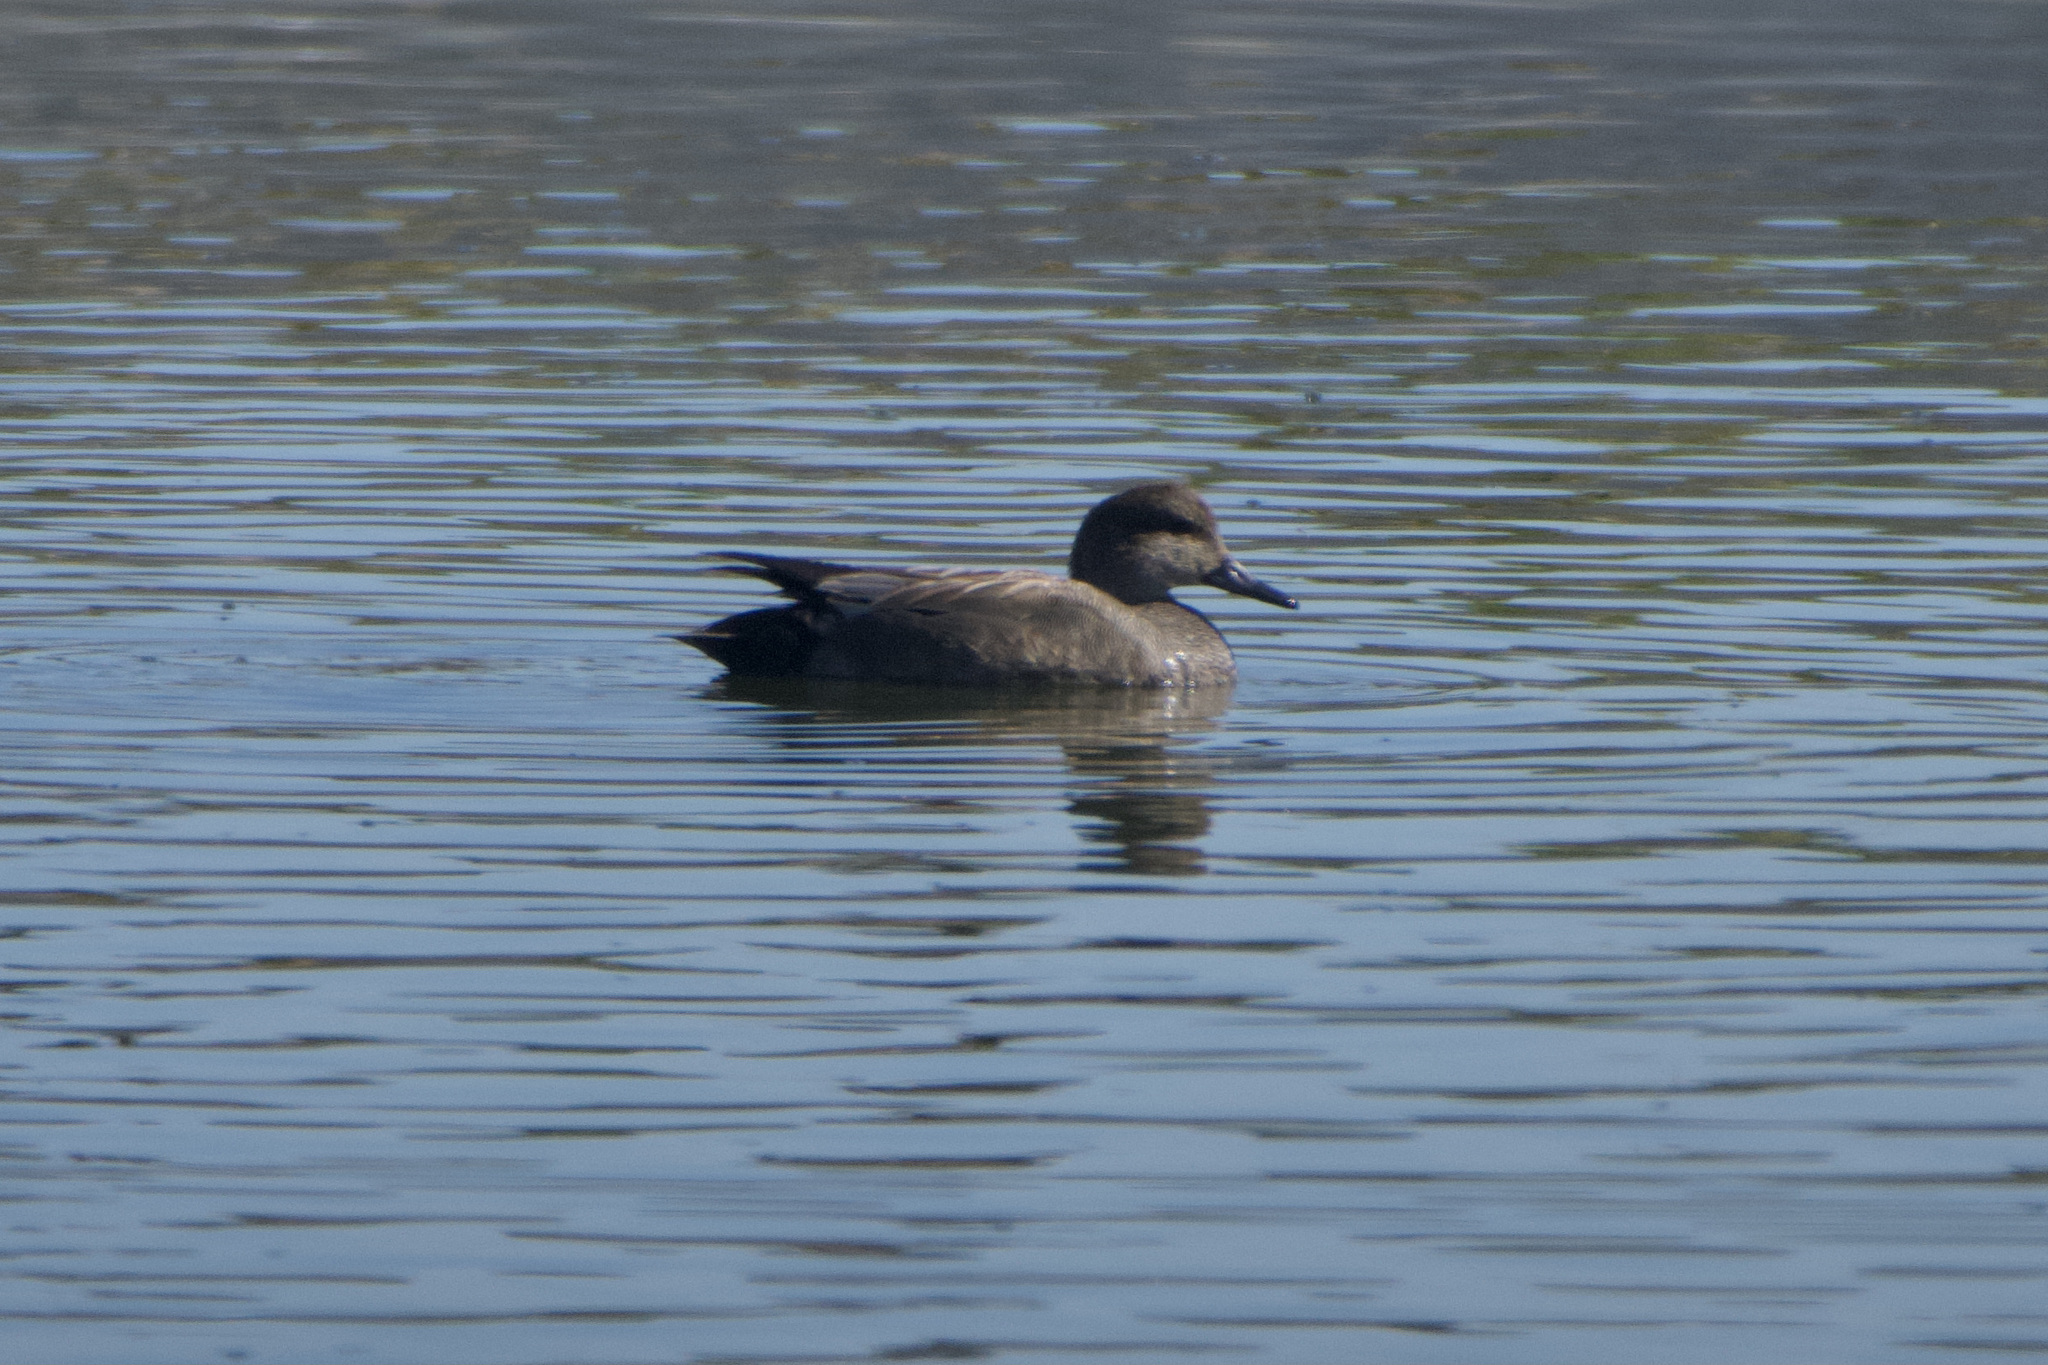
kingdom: Animalia
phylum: Chordata
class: Aves
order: Anseriformes
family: Anatidae
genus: Mareca
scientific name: Mareca strepera
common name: Gadwall
